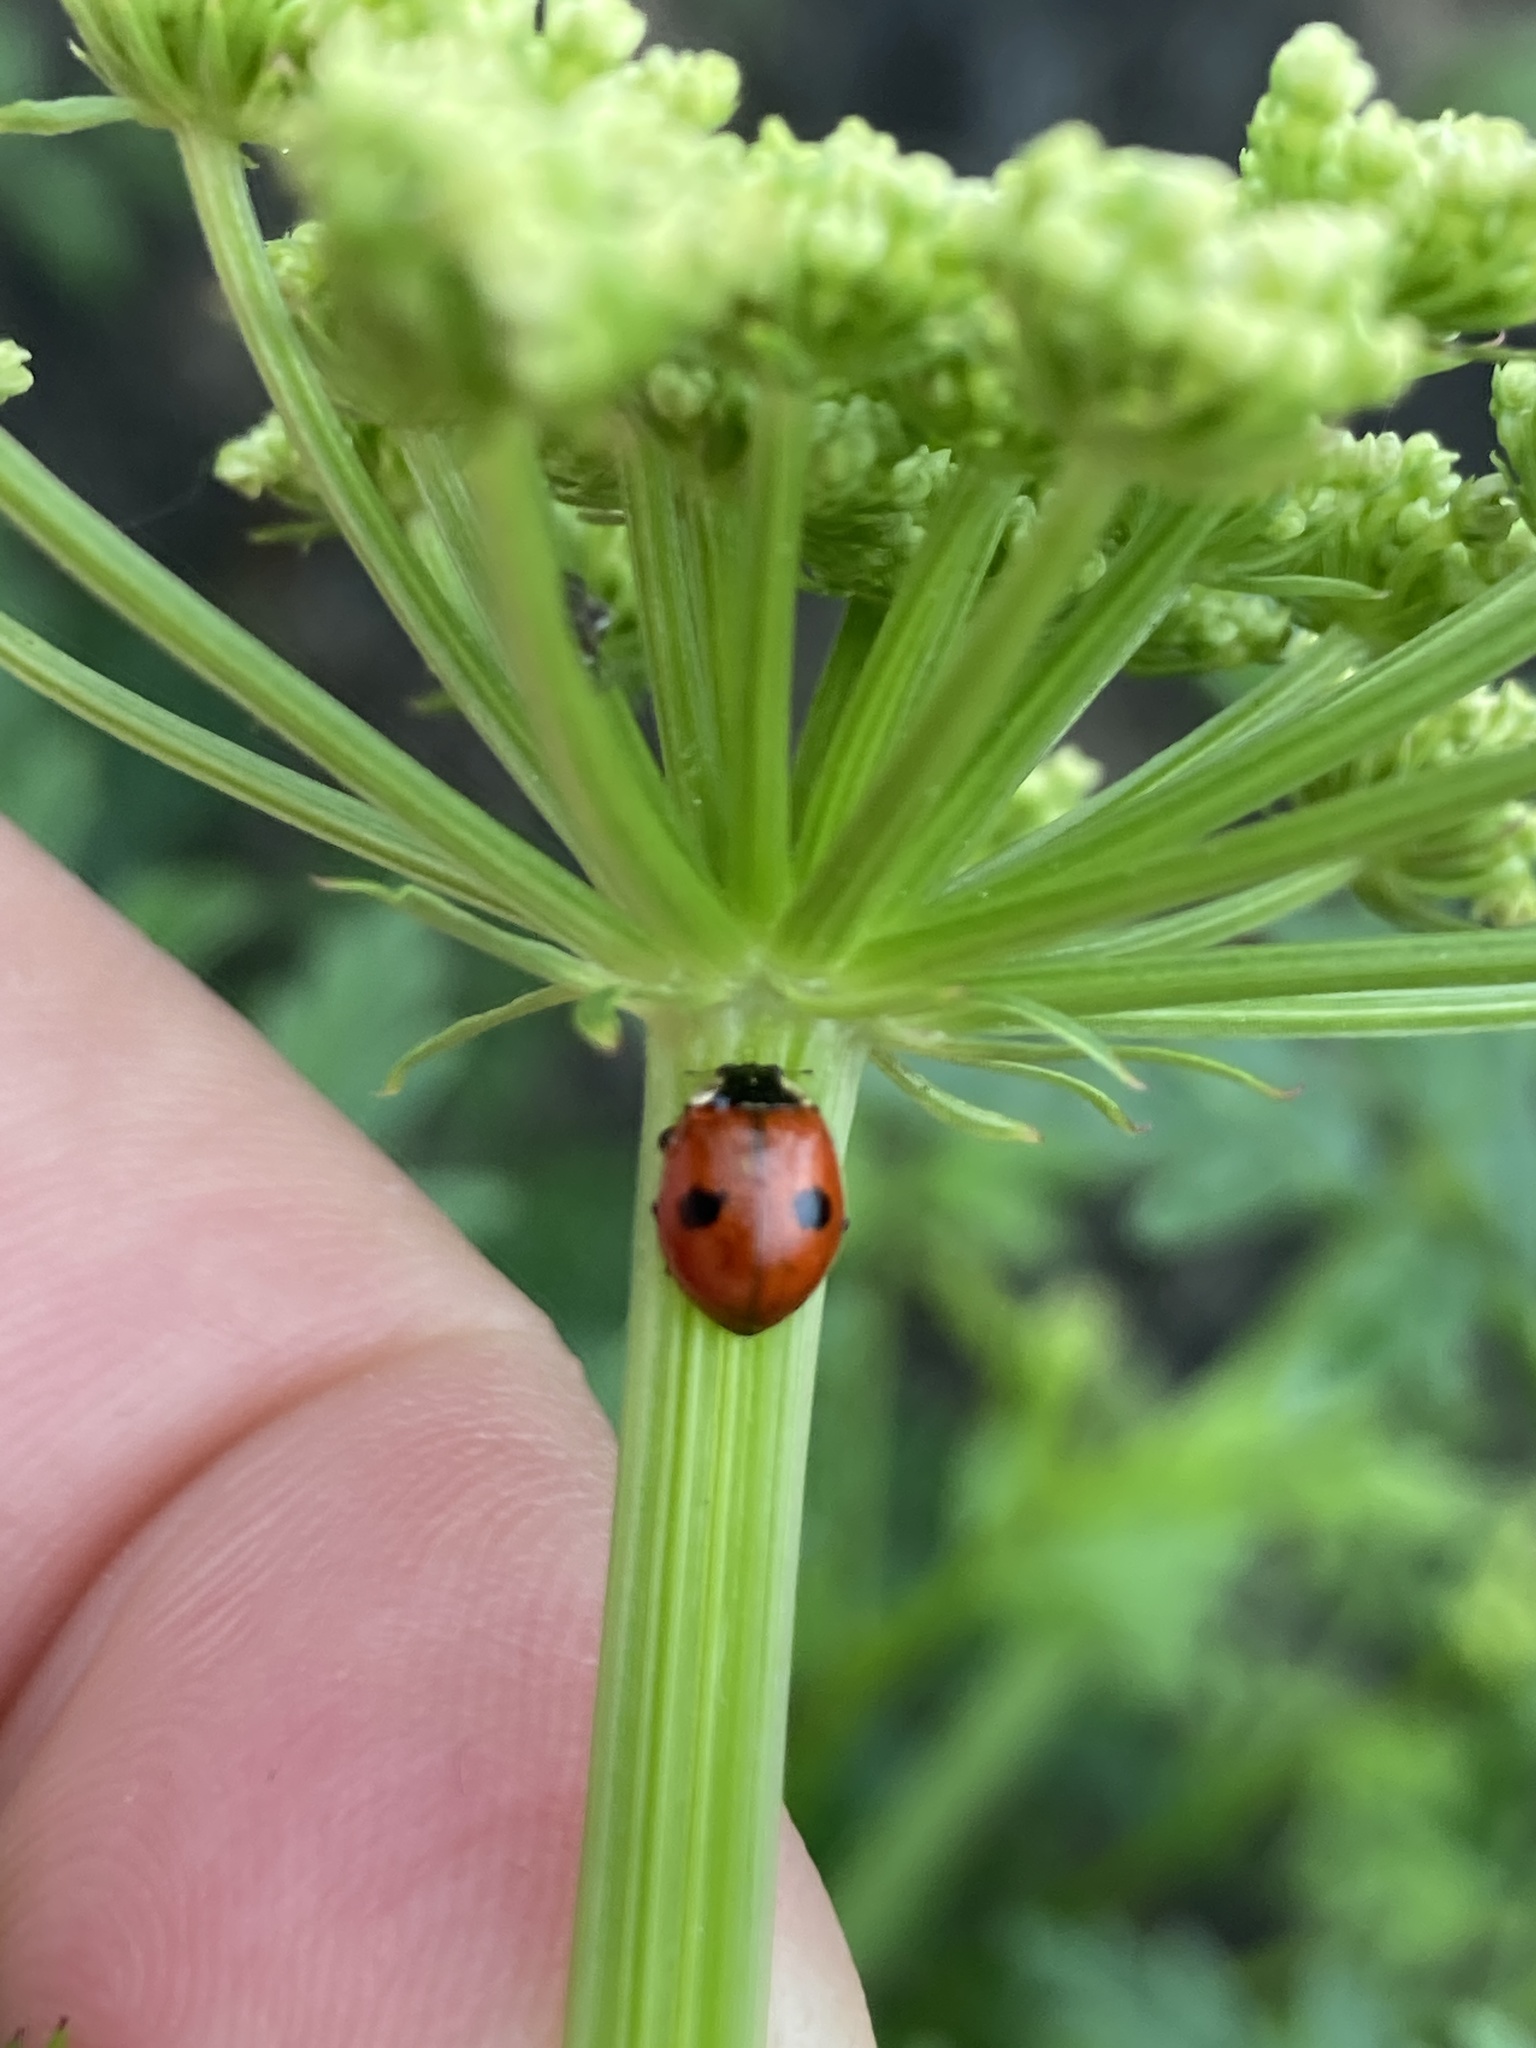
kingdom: Animalia
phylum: Arthropoda
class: Insecta
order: Coleoptera
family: Coccinellidae
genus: Adalia
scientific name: Adalia bipunctata
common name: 2-spot ladybird
